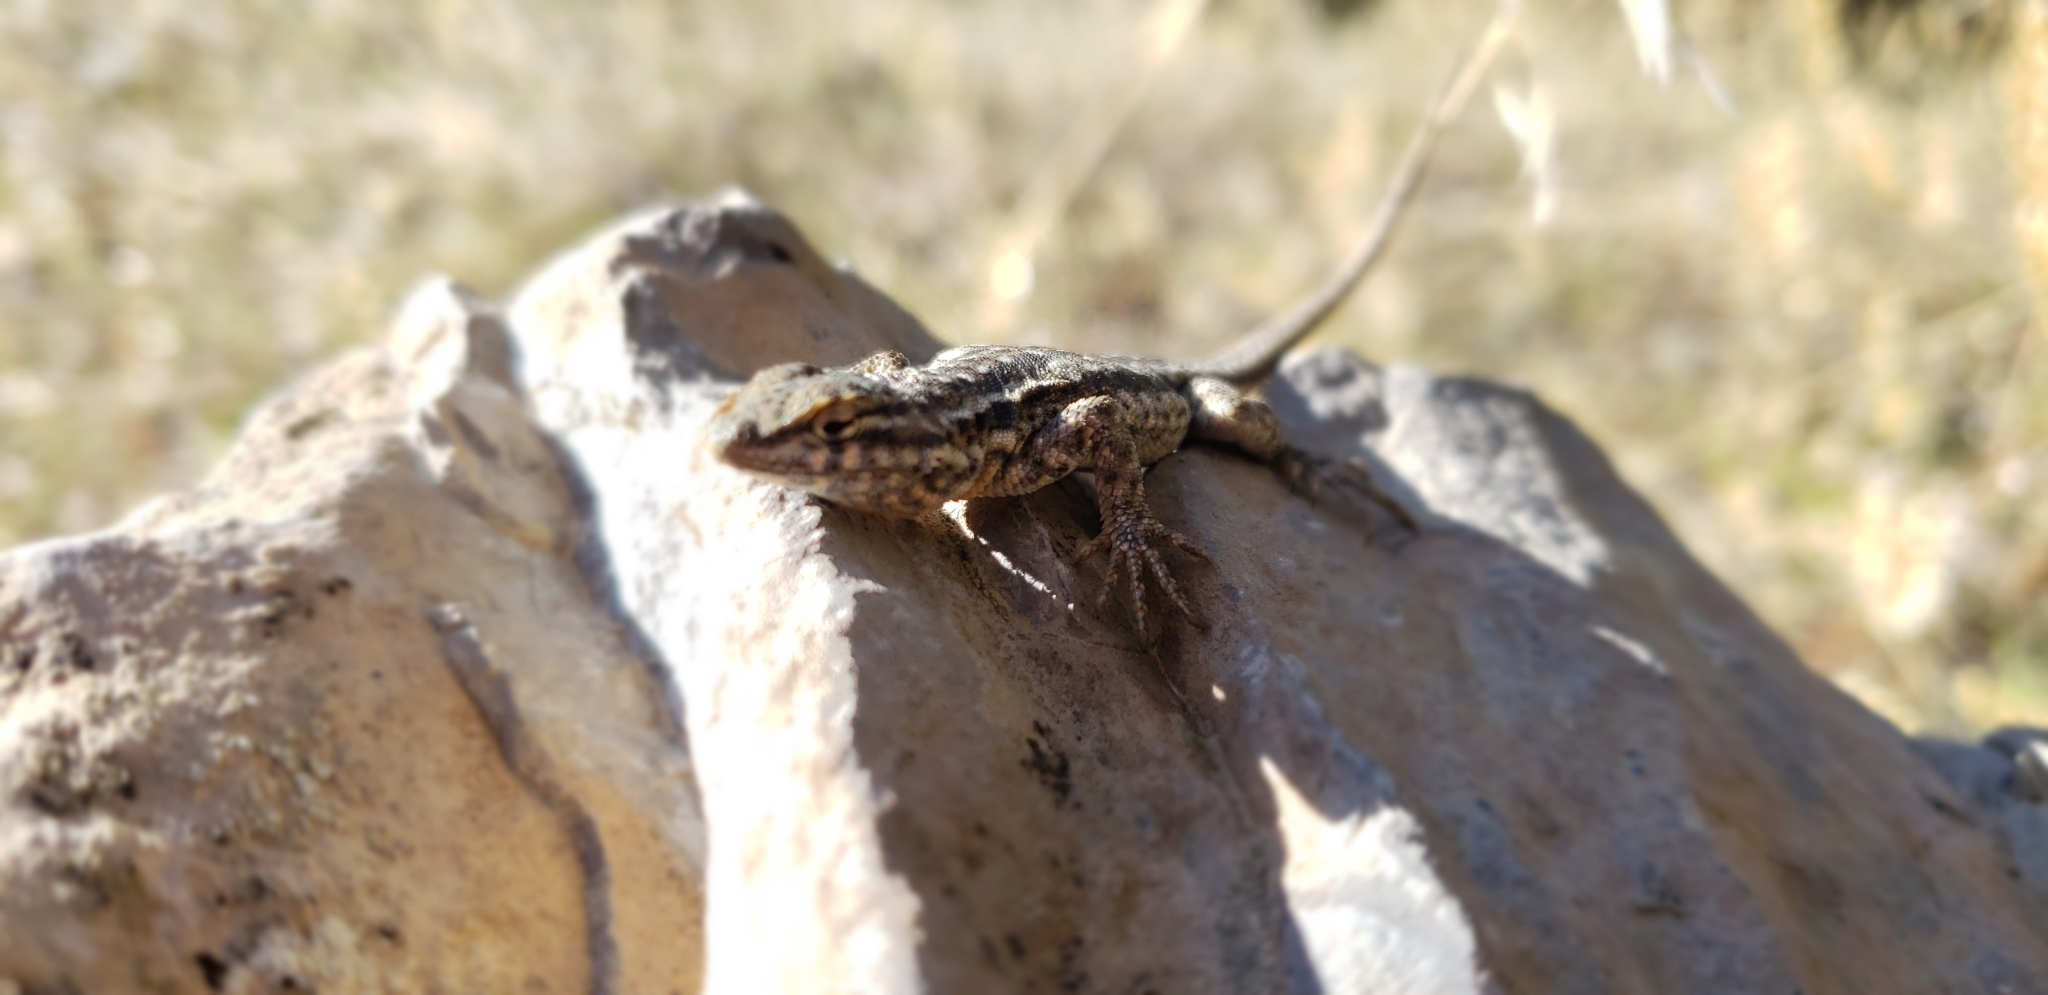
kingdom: Animalia
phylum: Chordata
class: Squamata
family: Phrynosomatidae
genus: Uta
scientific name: Uta stansburiana
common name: Side-blotched lizard
